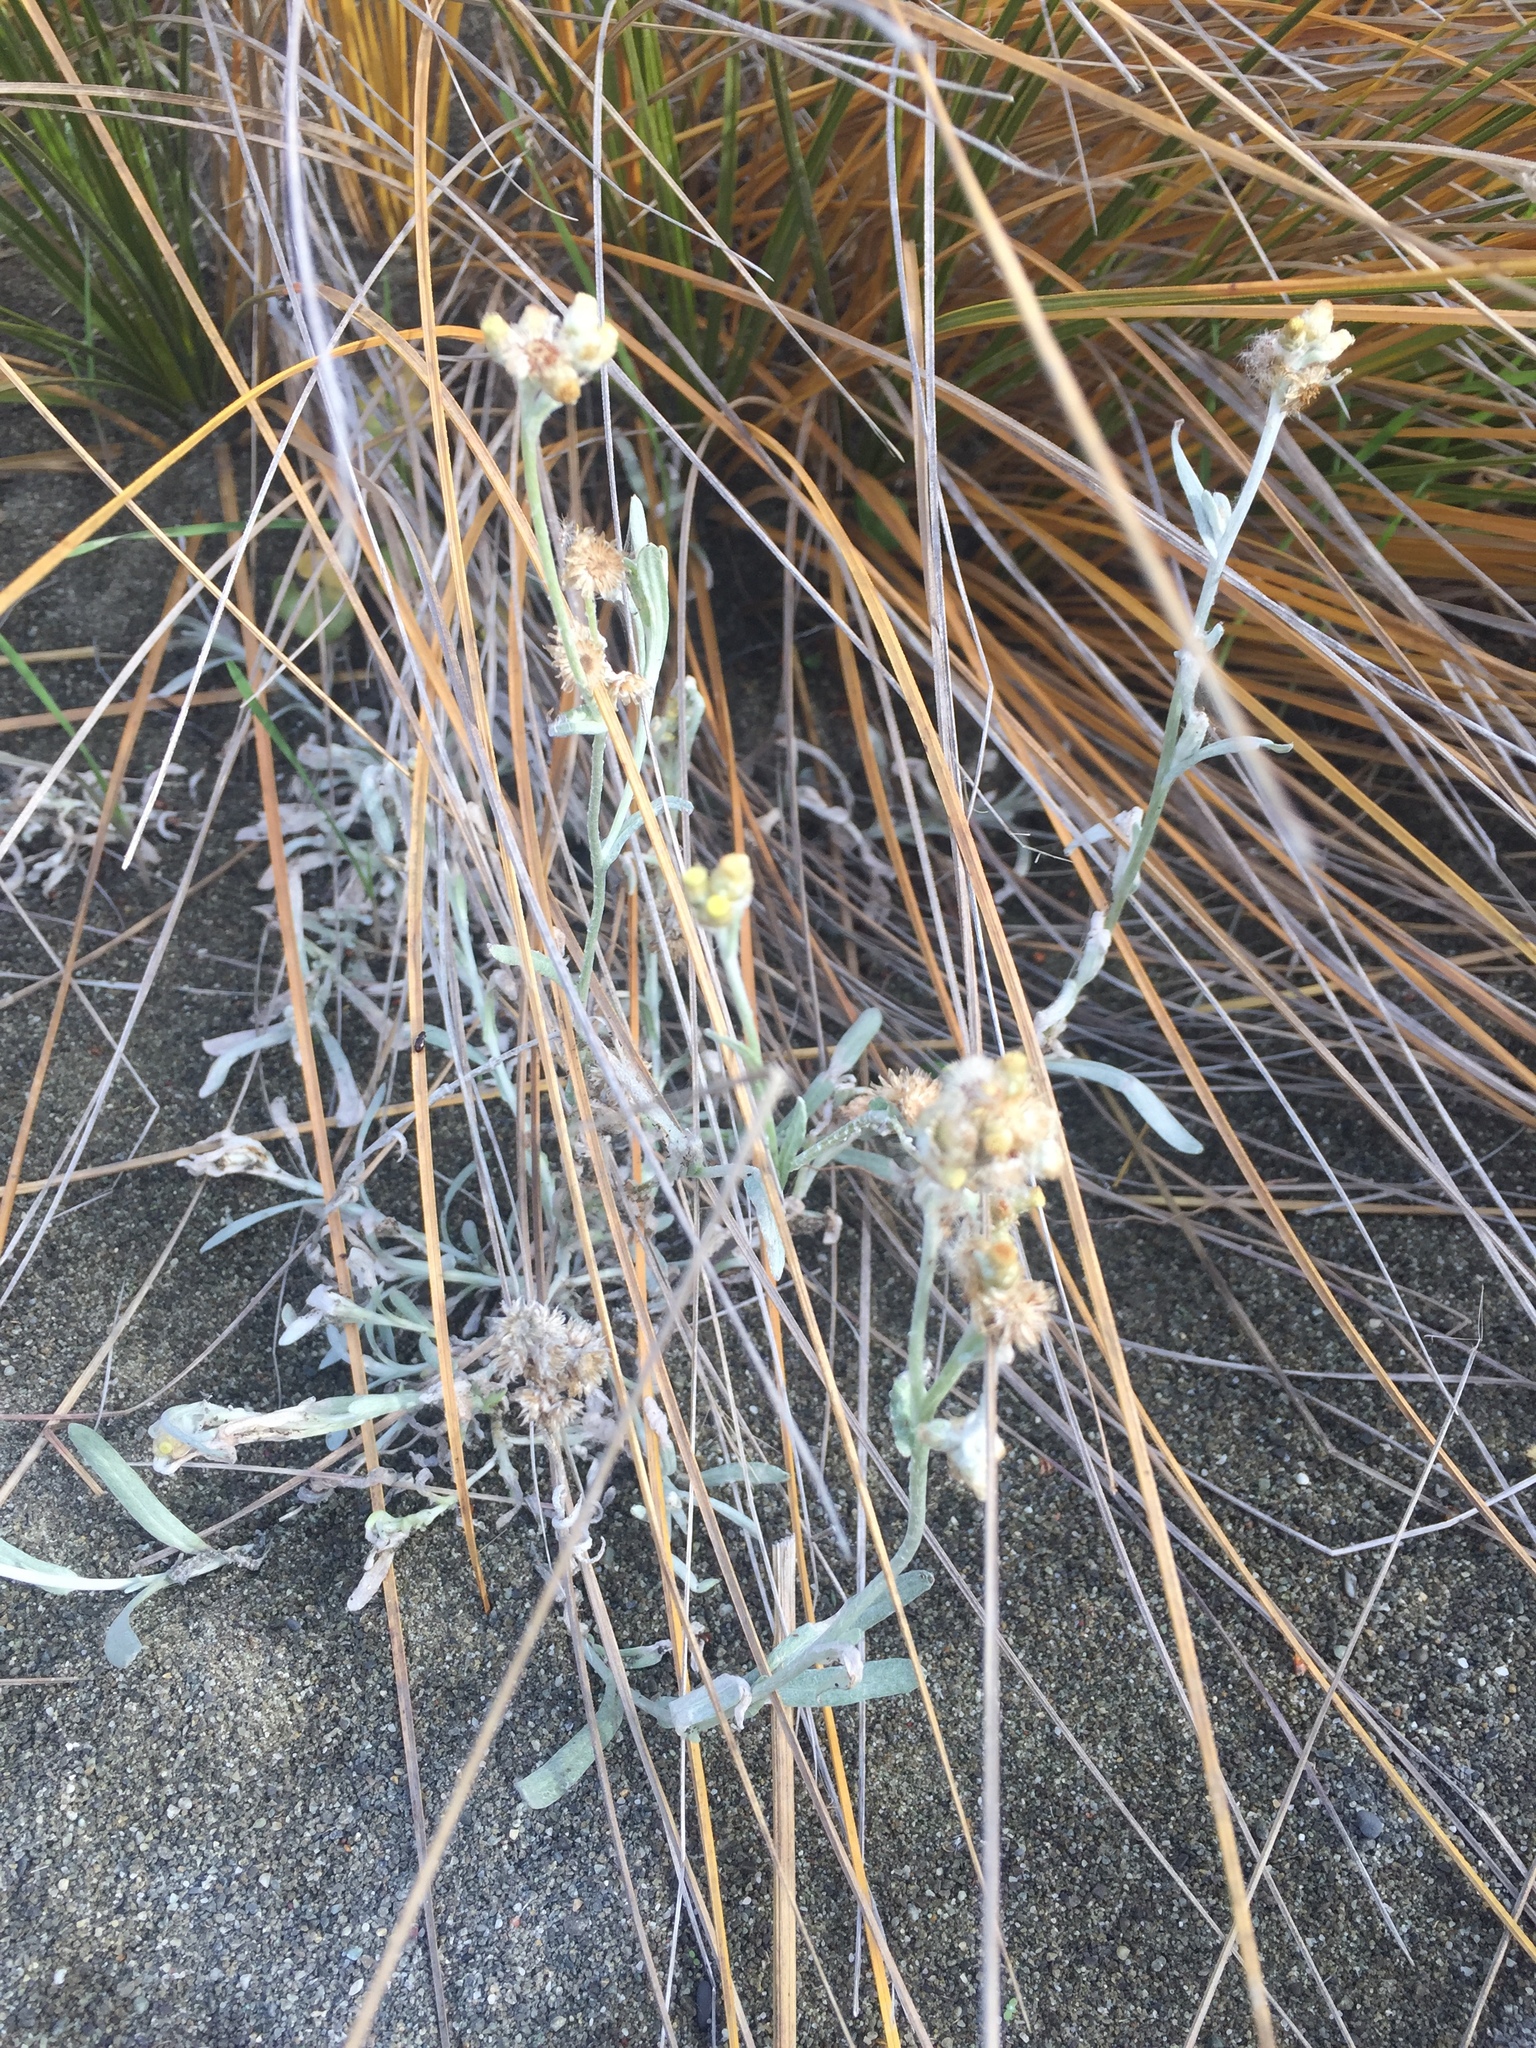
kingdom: Plantae
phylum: Tracheophyta
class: Magnoliopsida
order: Asterales
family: Asteraceae
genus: Helichrysum
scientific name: Helichrysum luteoalbum
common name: Daisy
